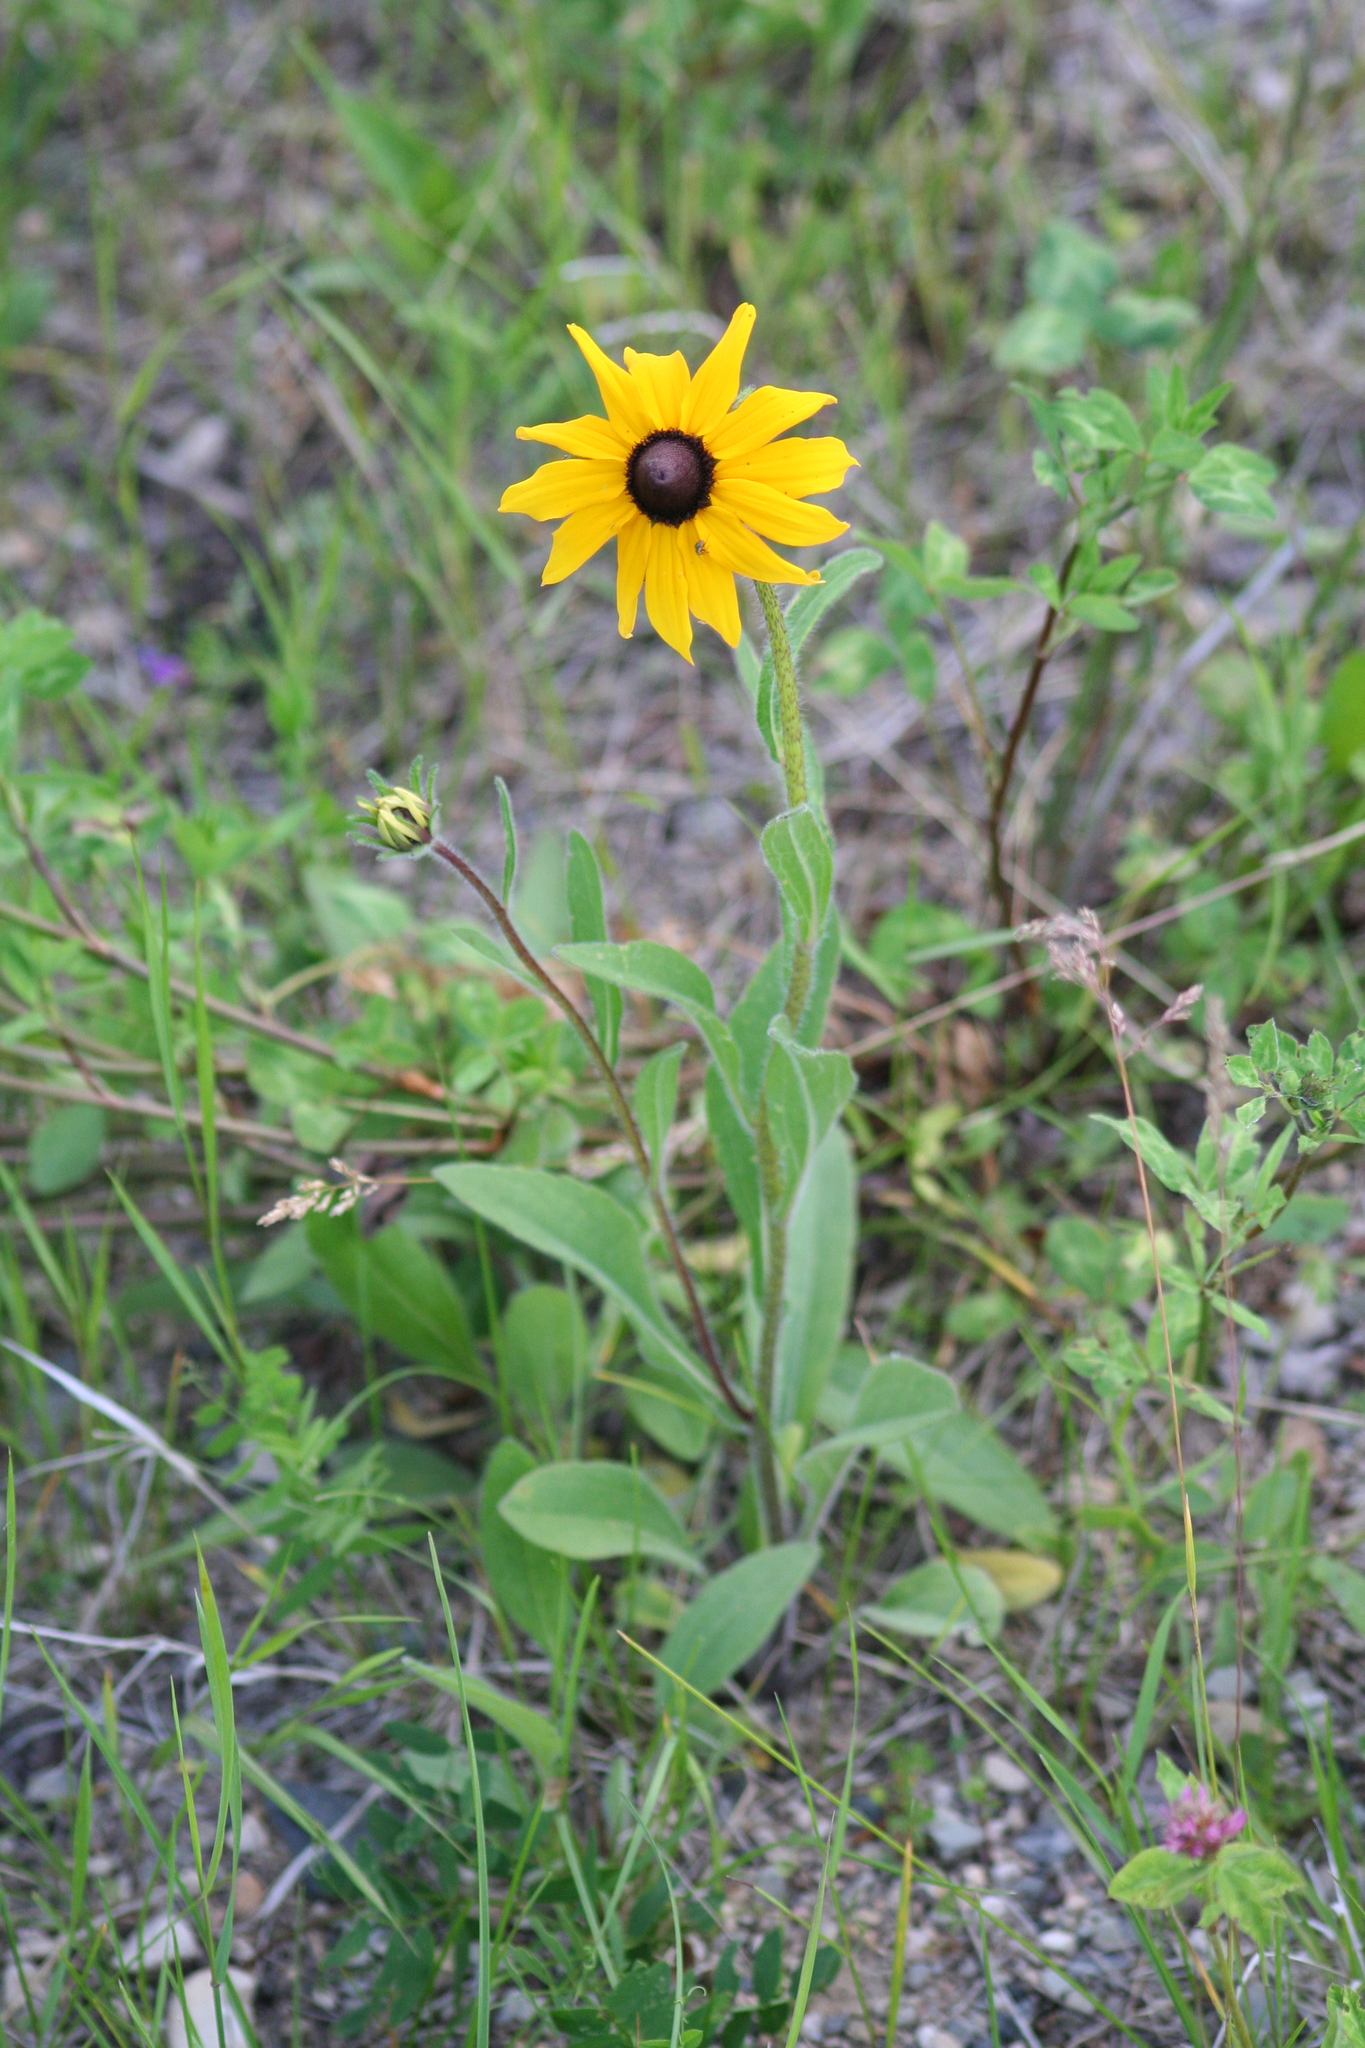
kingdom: Plantae
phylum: Tracheophyta
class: Magnoliopsida
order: Asterales
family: Asteraceae
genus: Rudbeckia
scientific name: Rudbeckia hirta
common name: Black-eyed-susan
